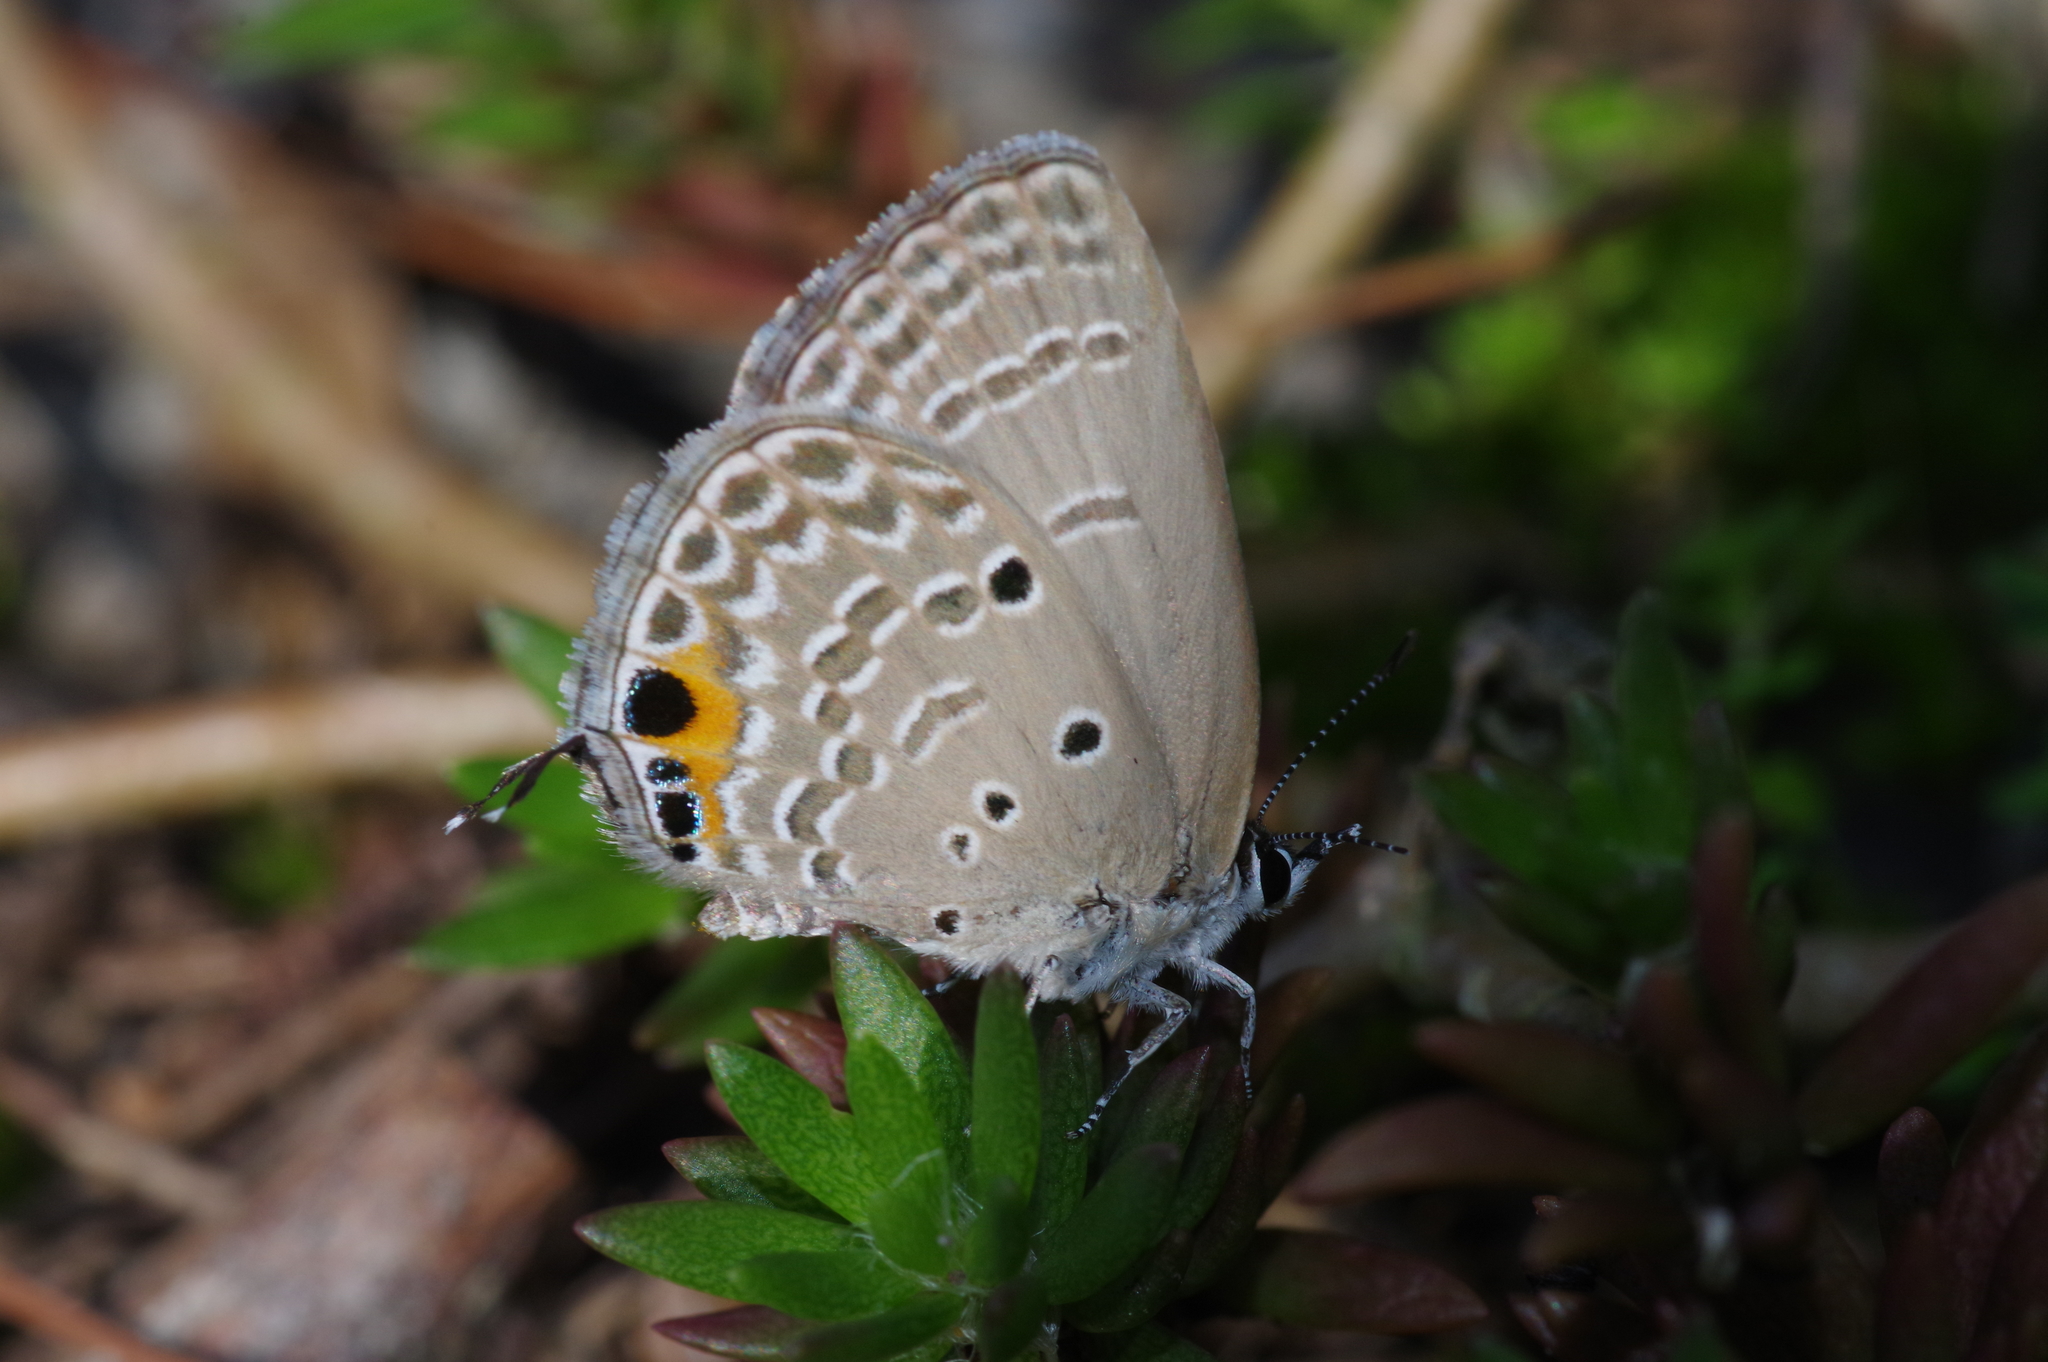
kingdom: Animalia
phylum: Arthropoda
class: Insecta
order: Lepidoptera
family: Lycaenidae
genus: Luthrodes
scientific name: Luthrodes pandava
